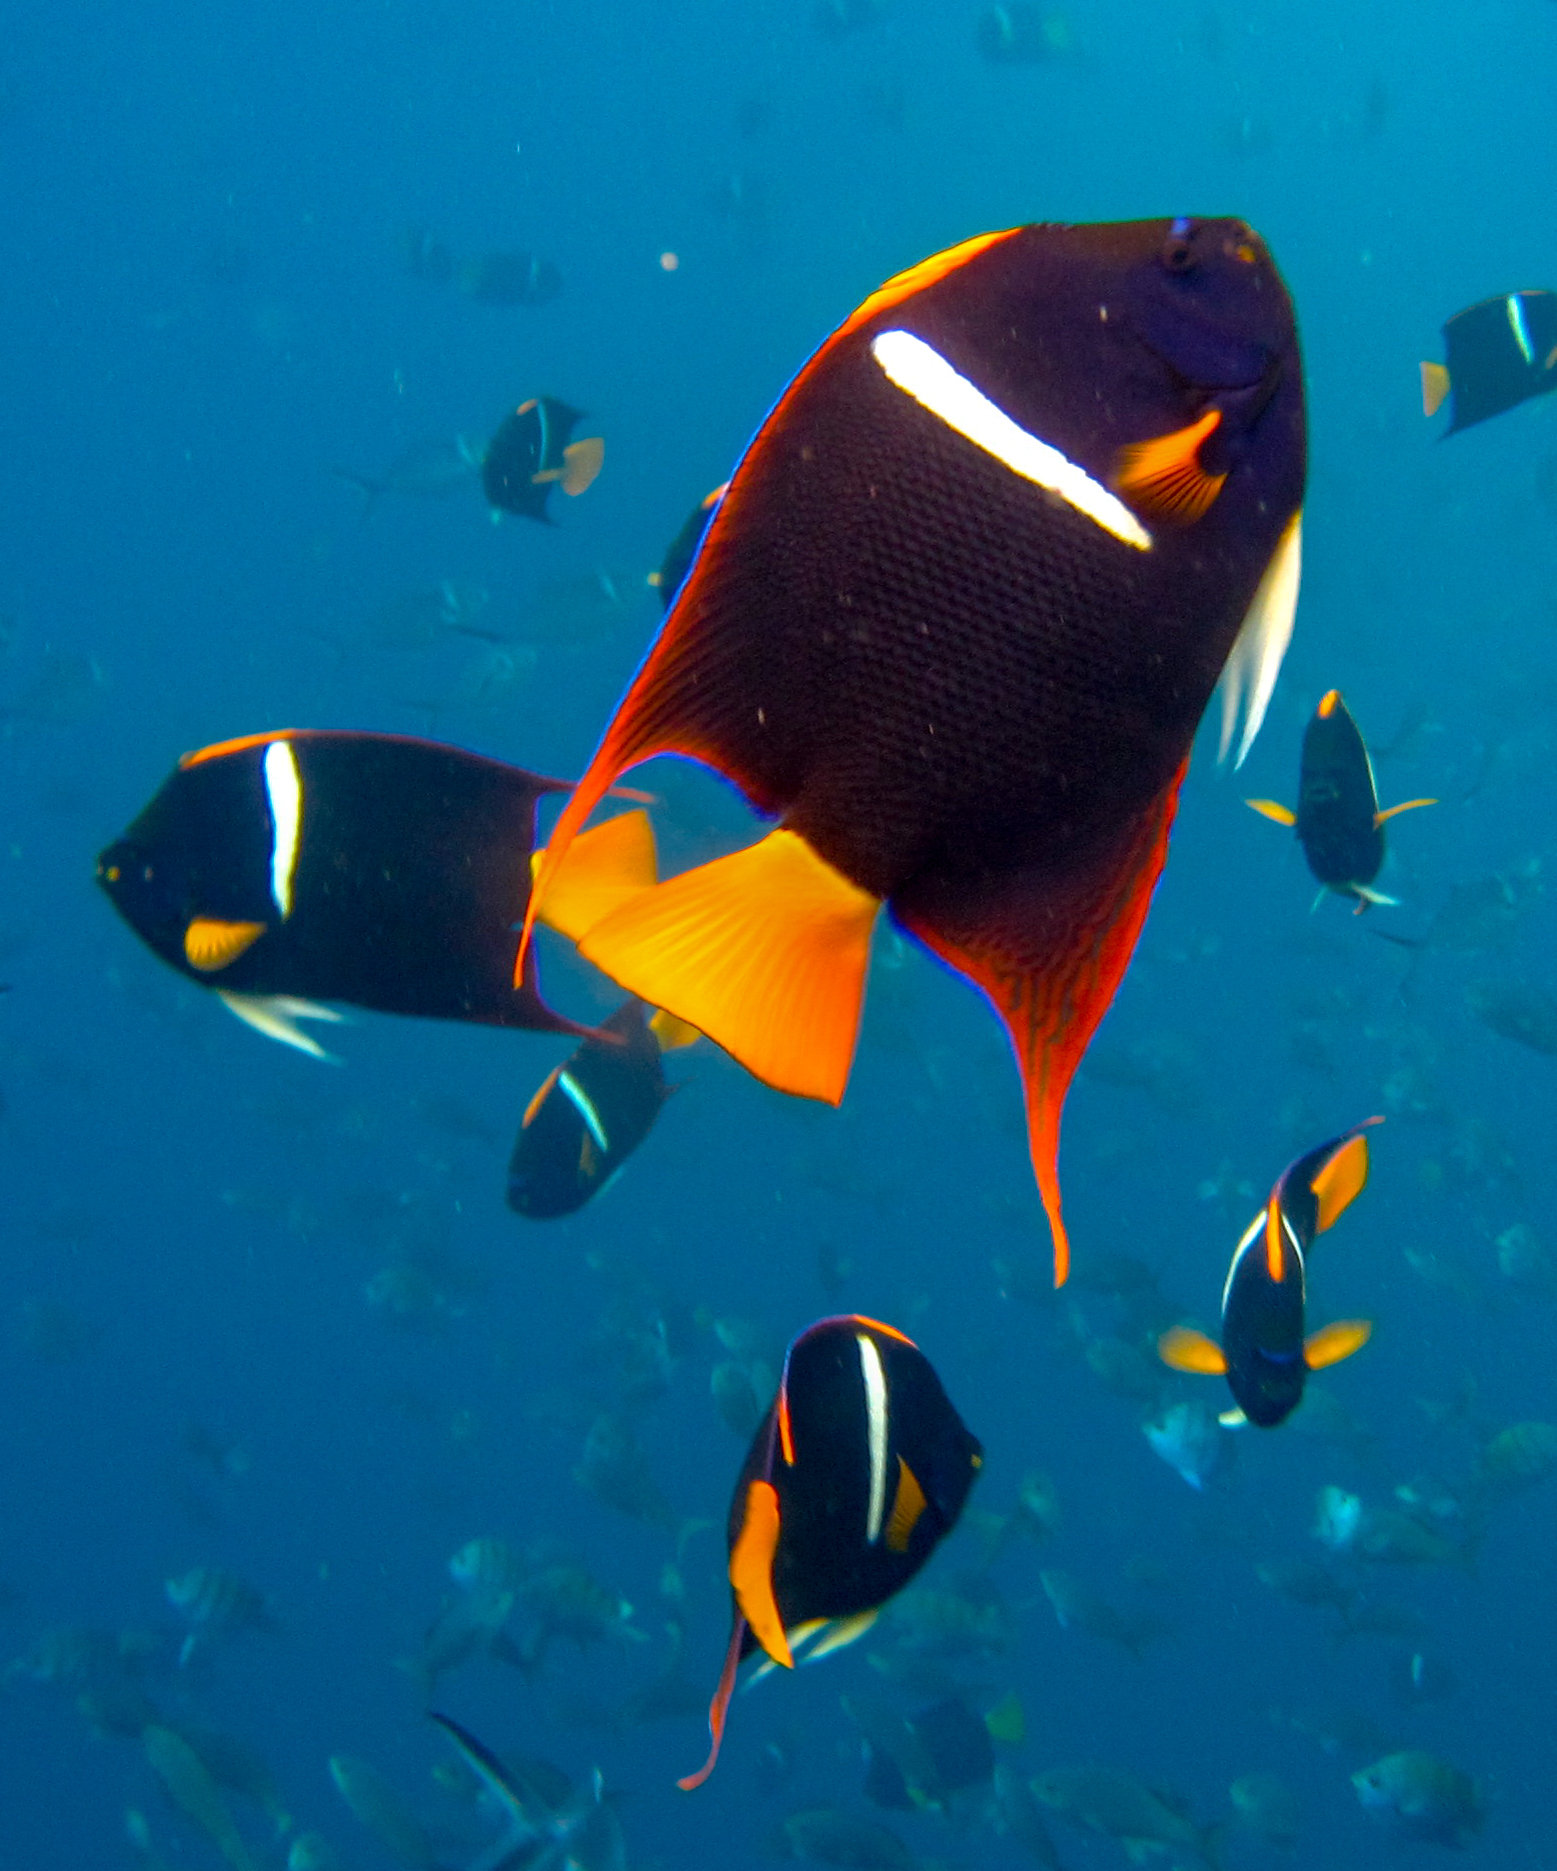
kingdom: Animalia
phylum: Chordata
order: Perciformes
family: Pomacanthidae
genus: Holacanthus
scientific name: Holacanthus passer
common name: King angelfish
